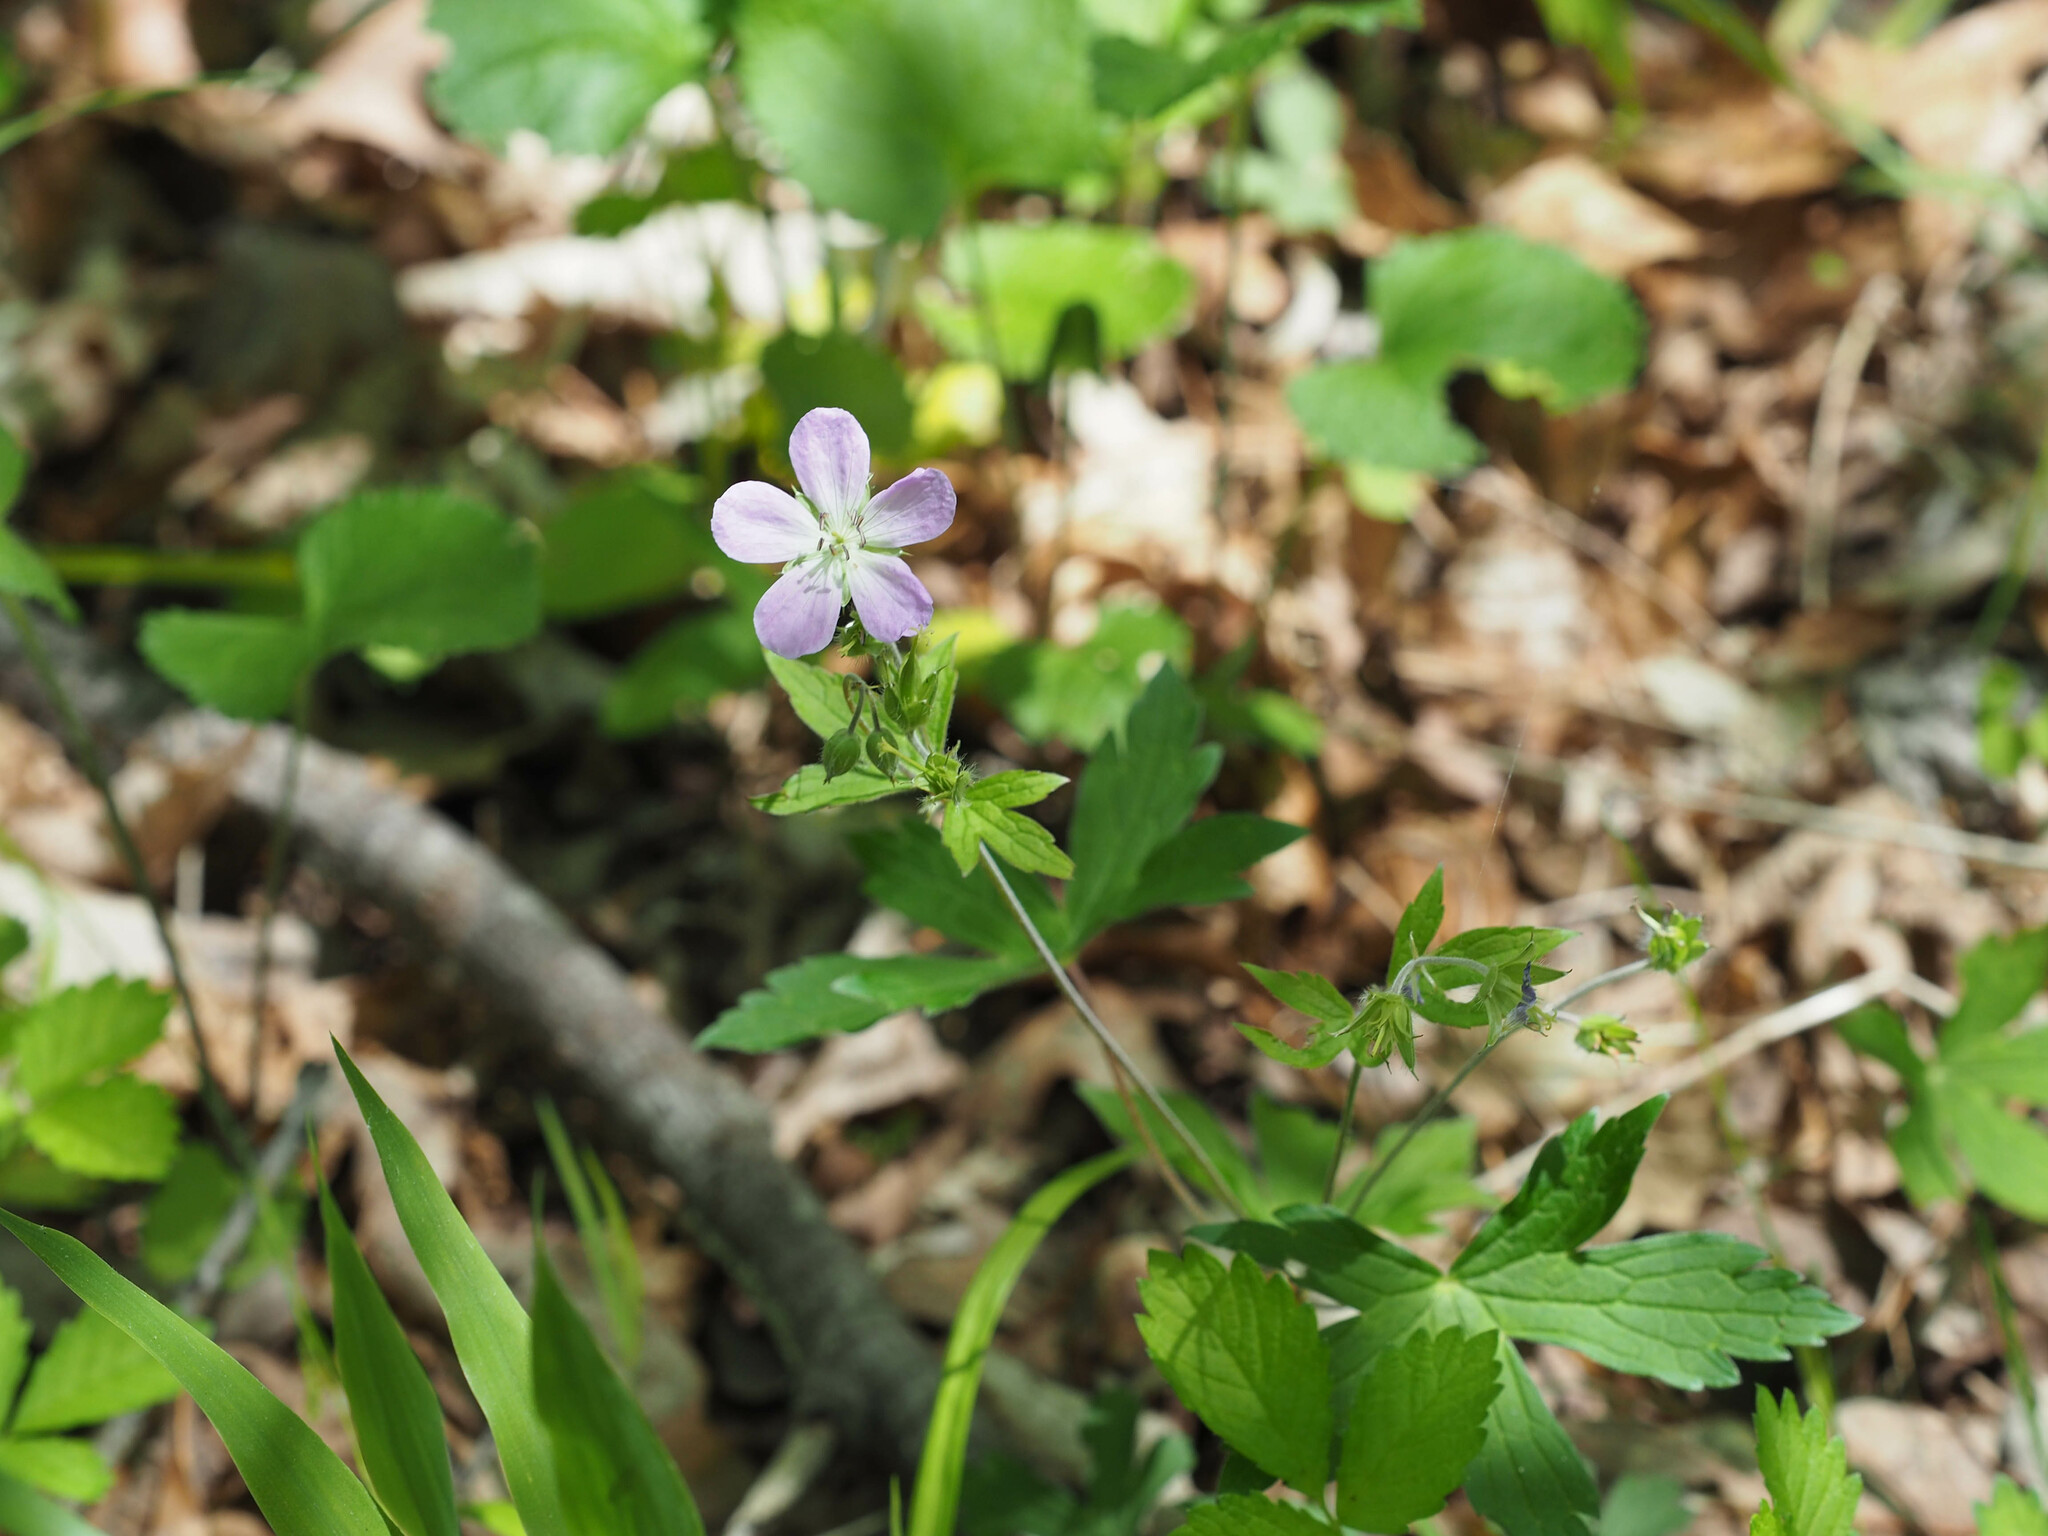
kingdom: Plantae
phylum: Tracheophyta
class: Magnoliopsida
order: Geraniales
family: Geraniaceae
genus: Geranium
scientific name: Geranium maculatum
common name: Spotted geranium
